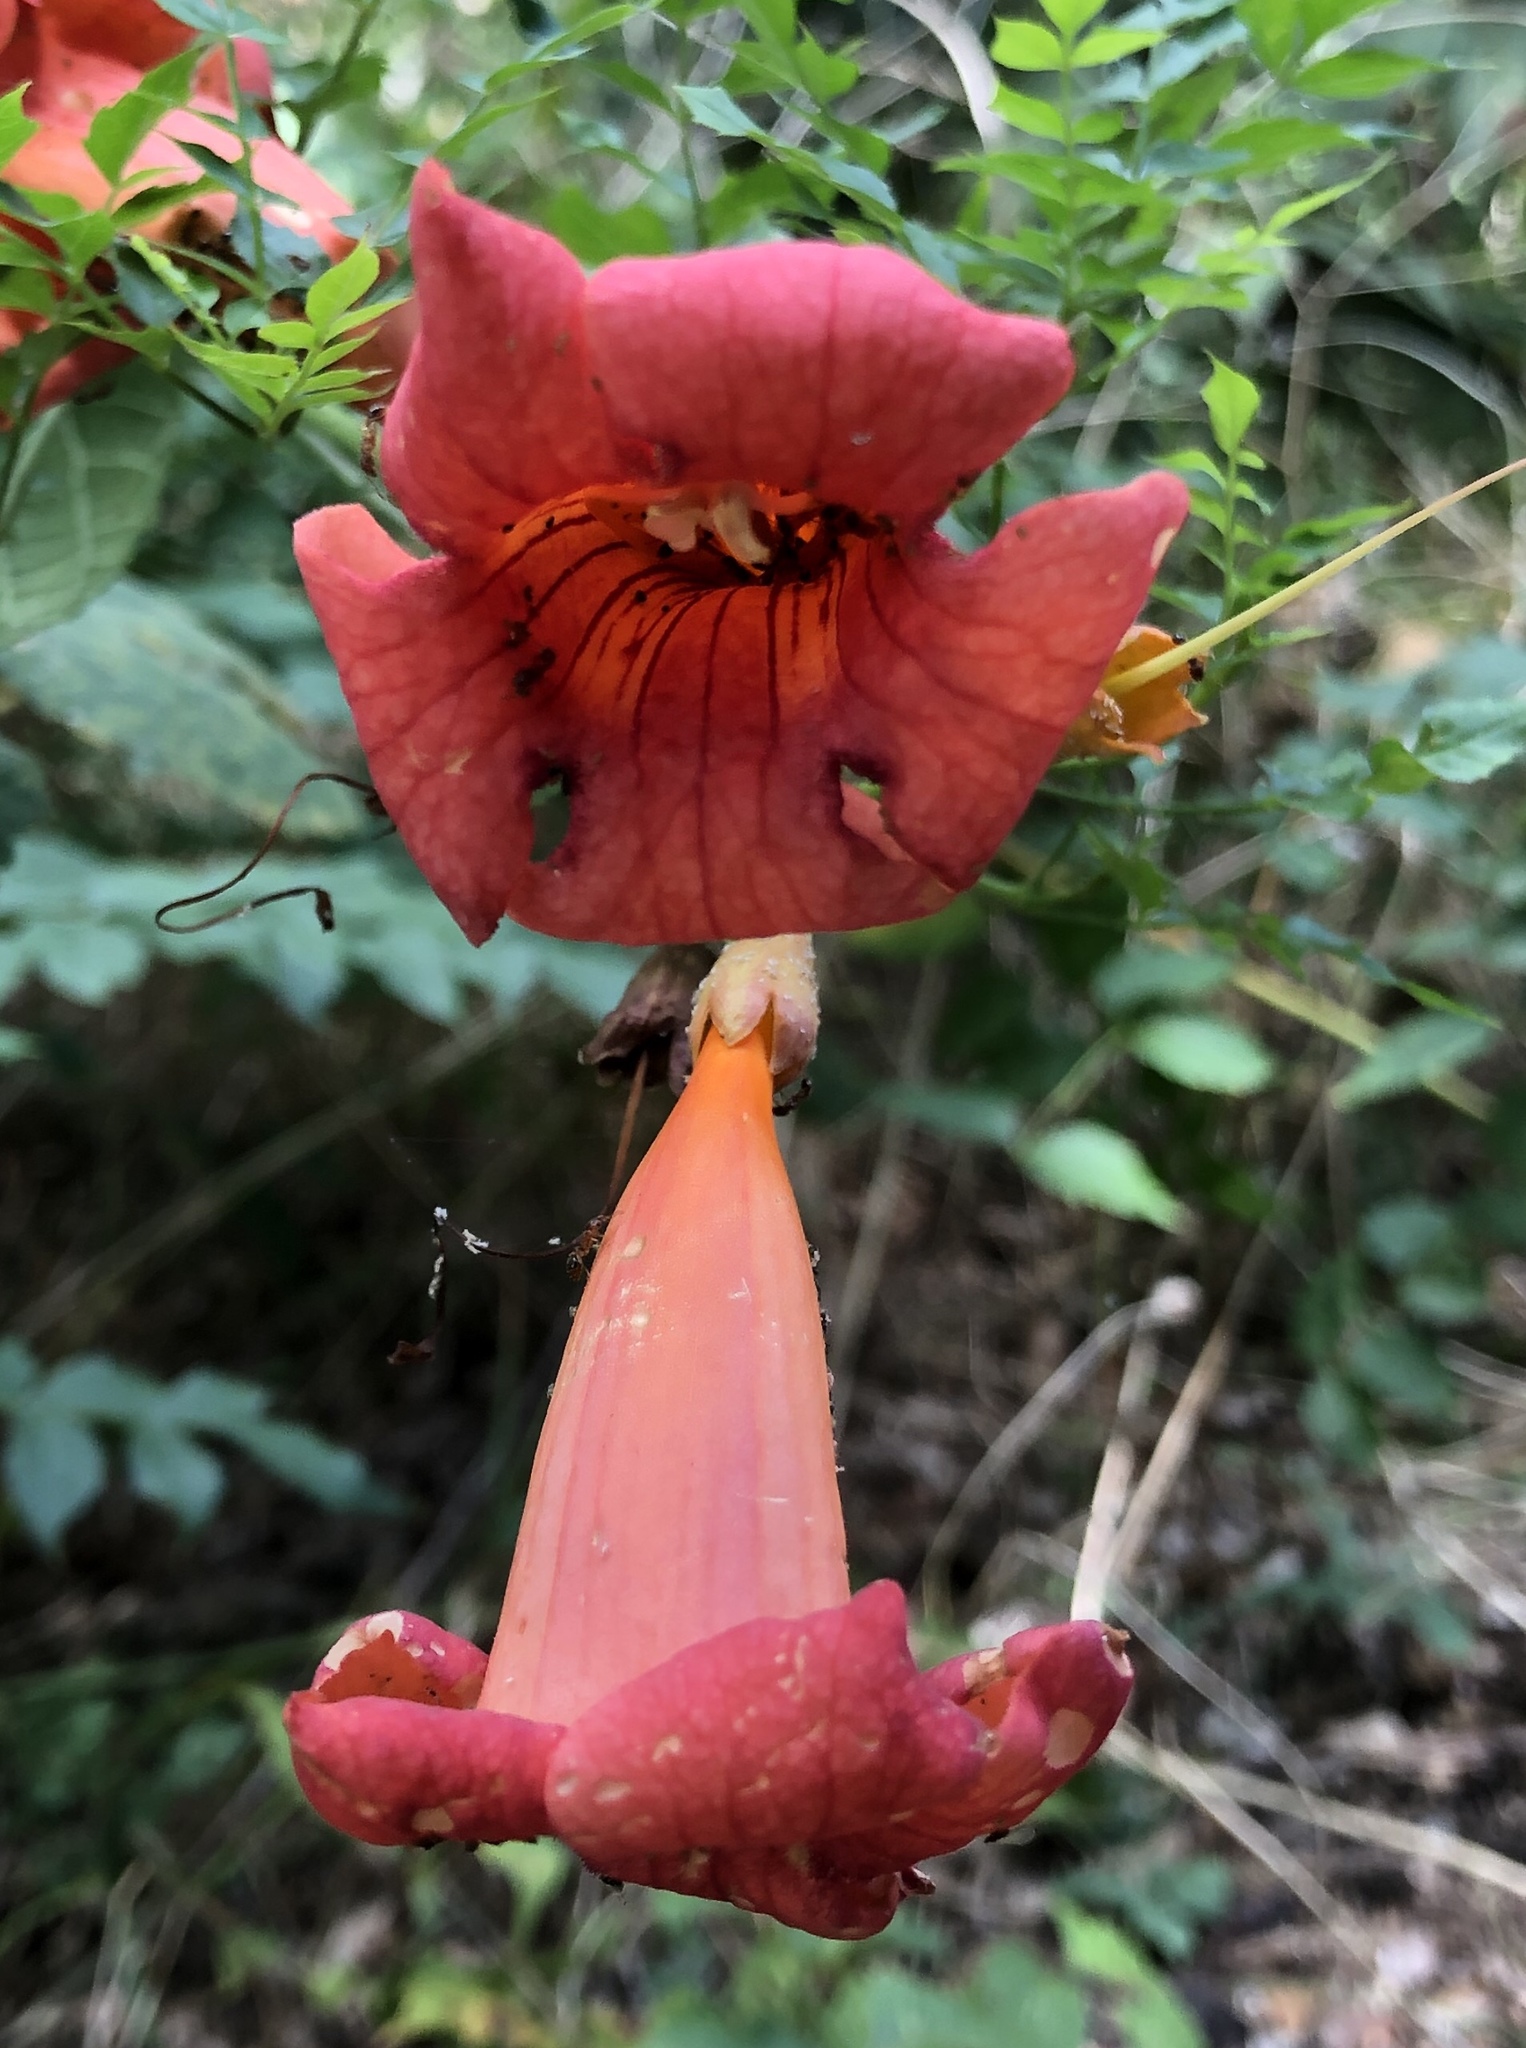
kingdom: Plantae
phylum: Tracheophyta
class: Magnoliopsida
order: Lamiales
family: Bignoniaceae
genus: Campsis
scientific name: Campsis radicans
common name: Trumpet-creeper
